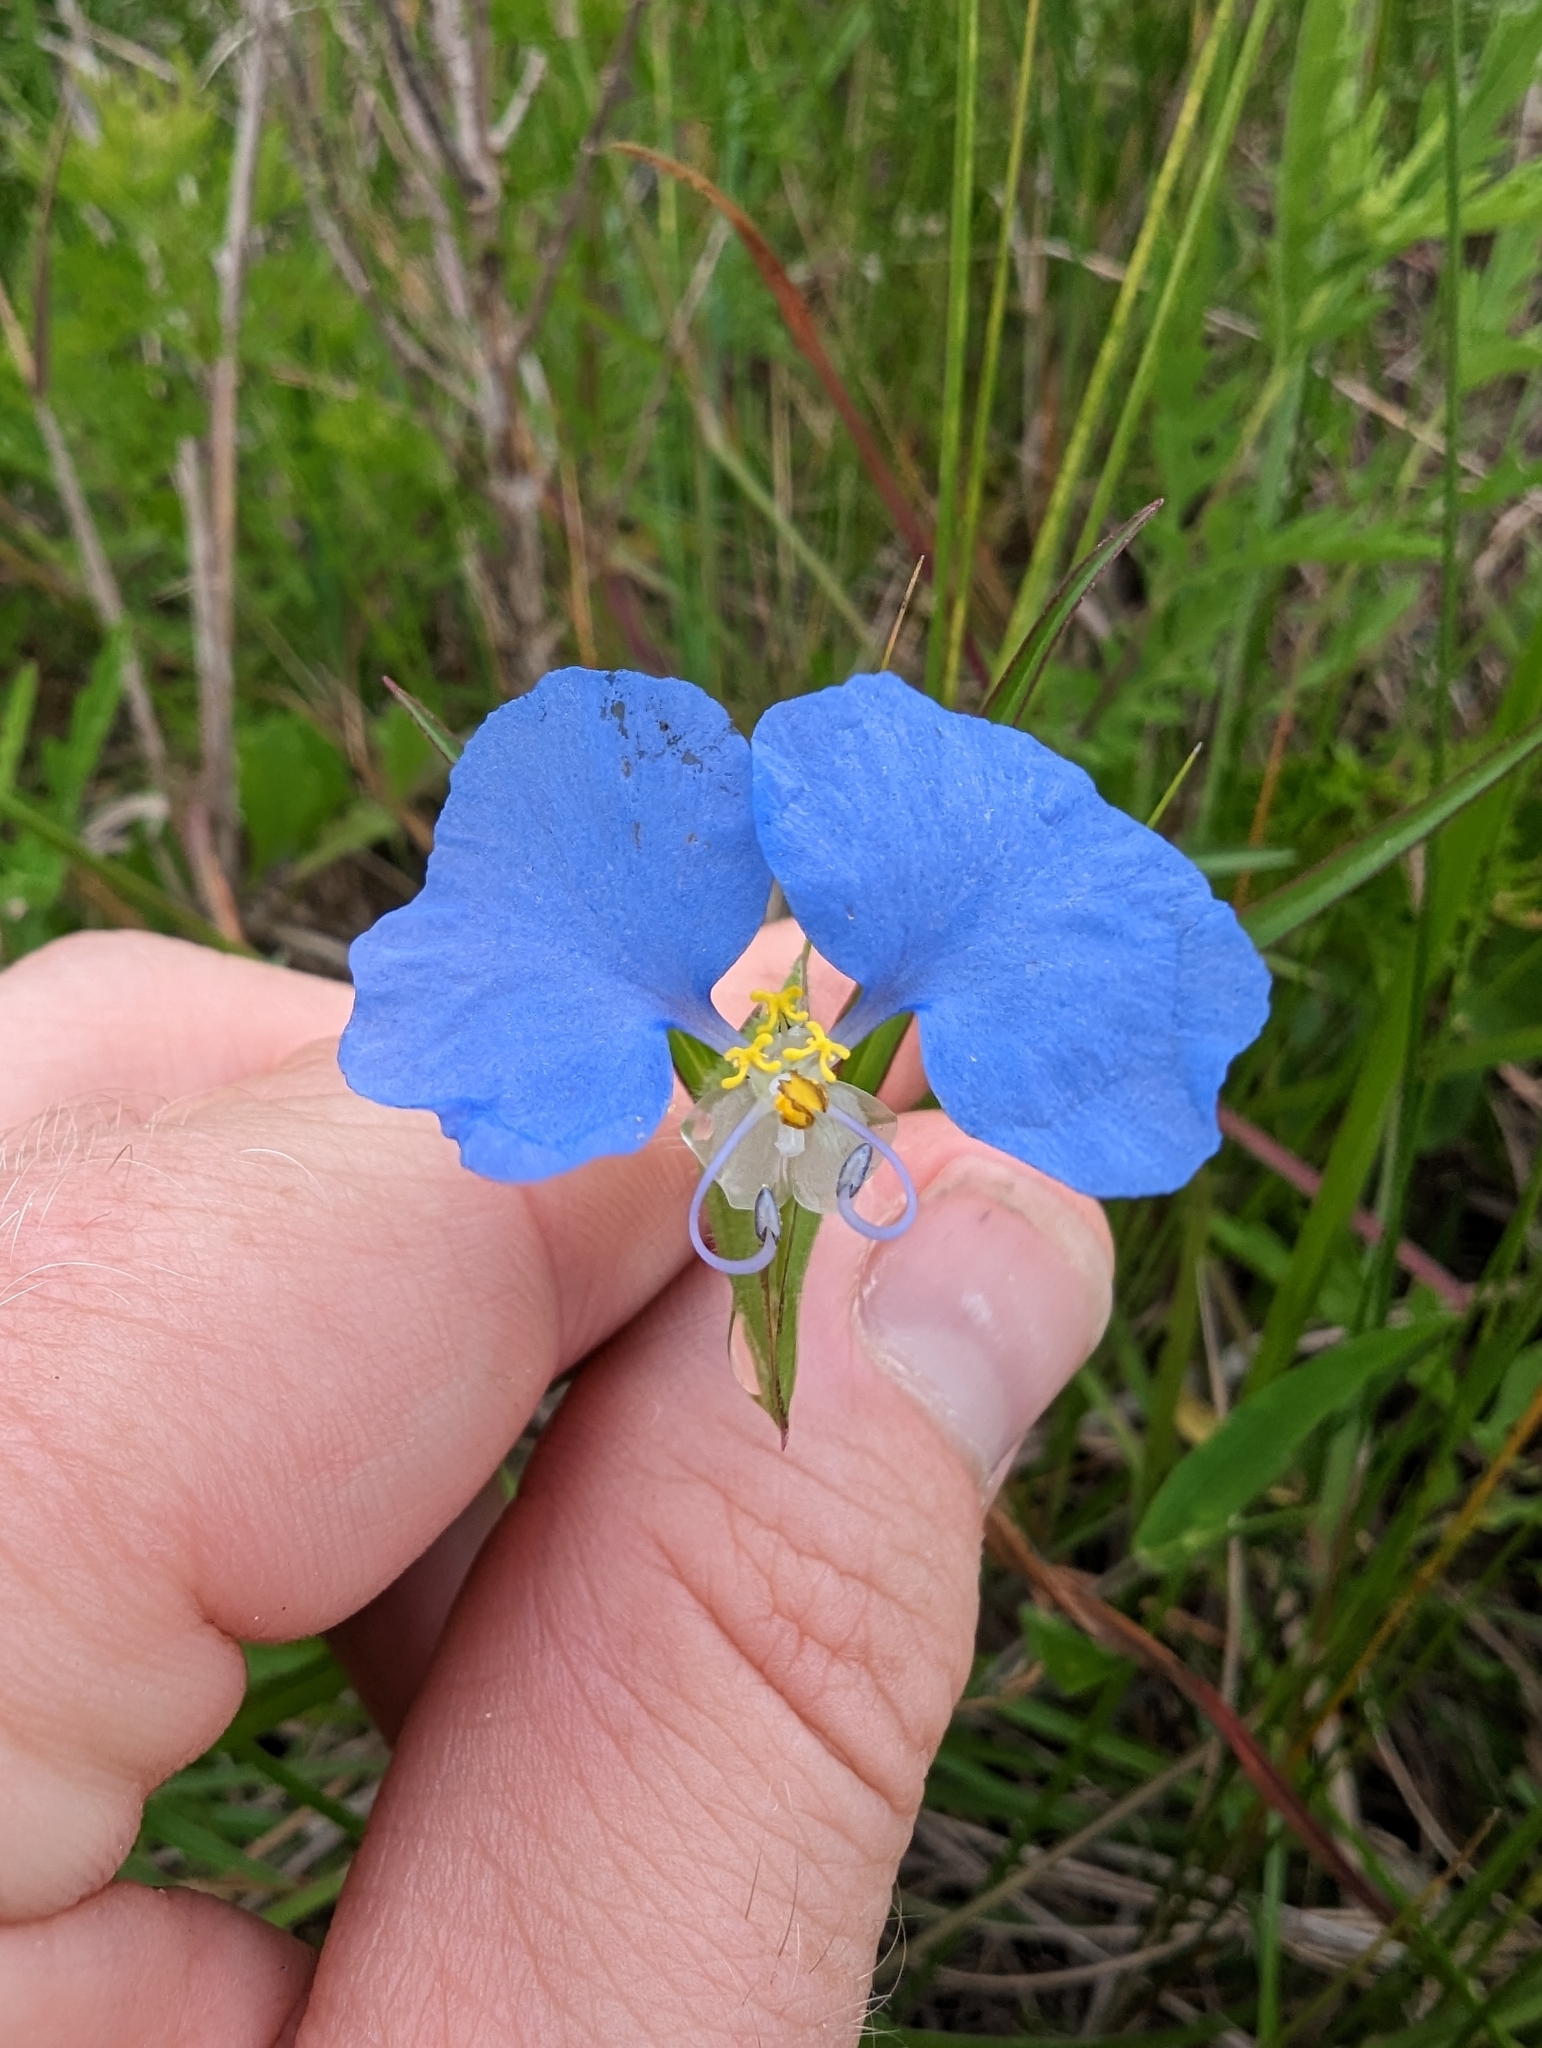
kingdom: Plantae
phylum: Tracheophyta
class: Liliopsida
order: Commelinales
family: Commelinaceae
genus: Commelina
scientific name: Commelina erecta
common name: Blousel blommetjie
